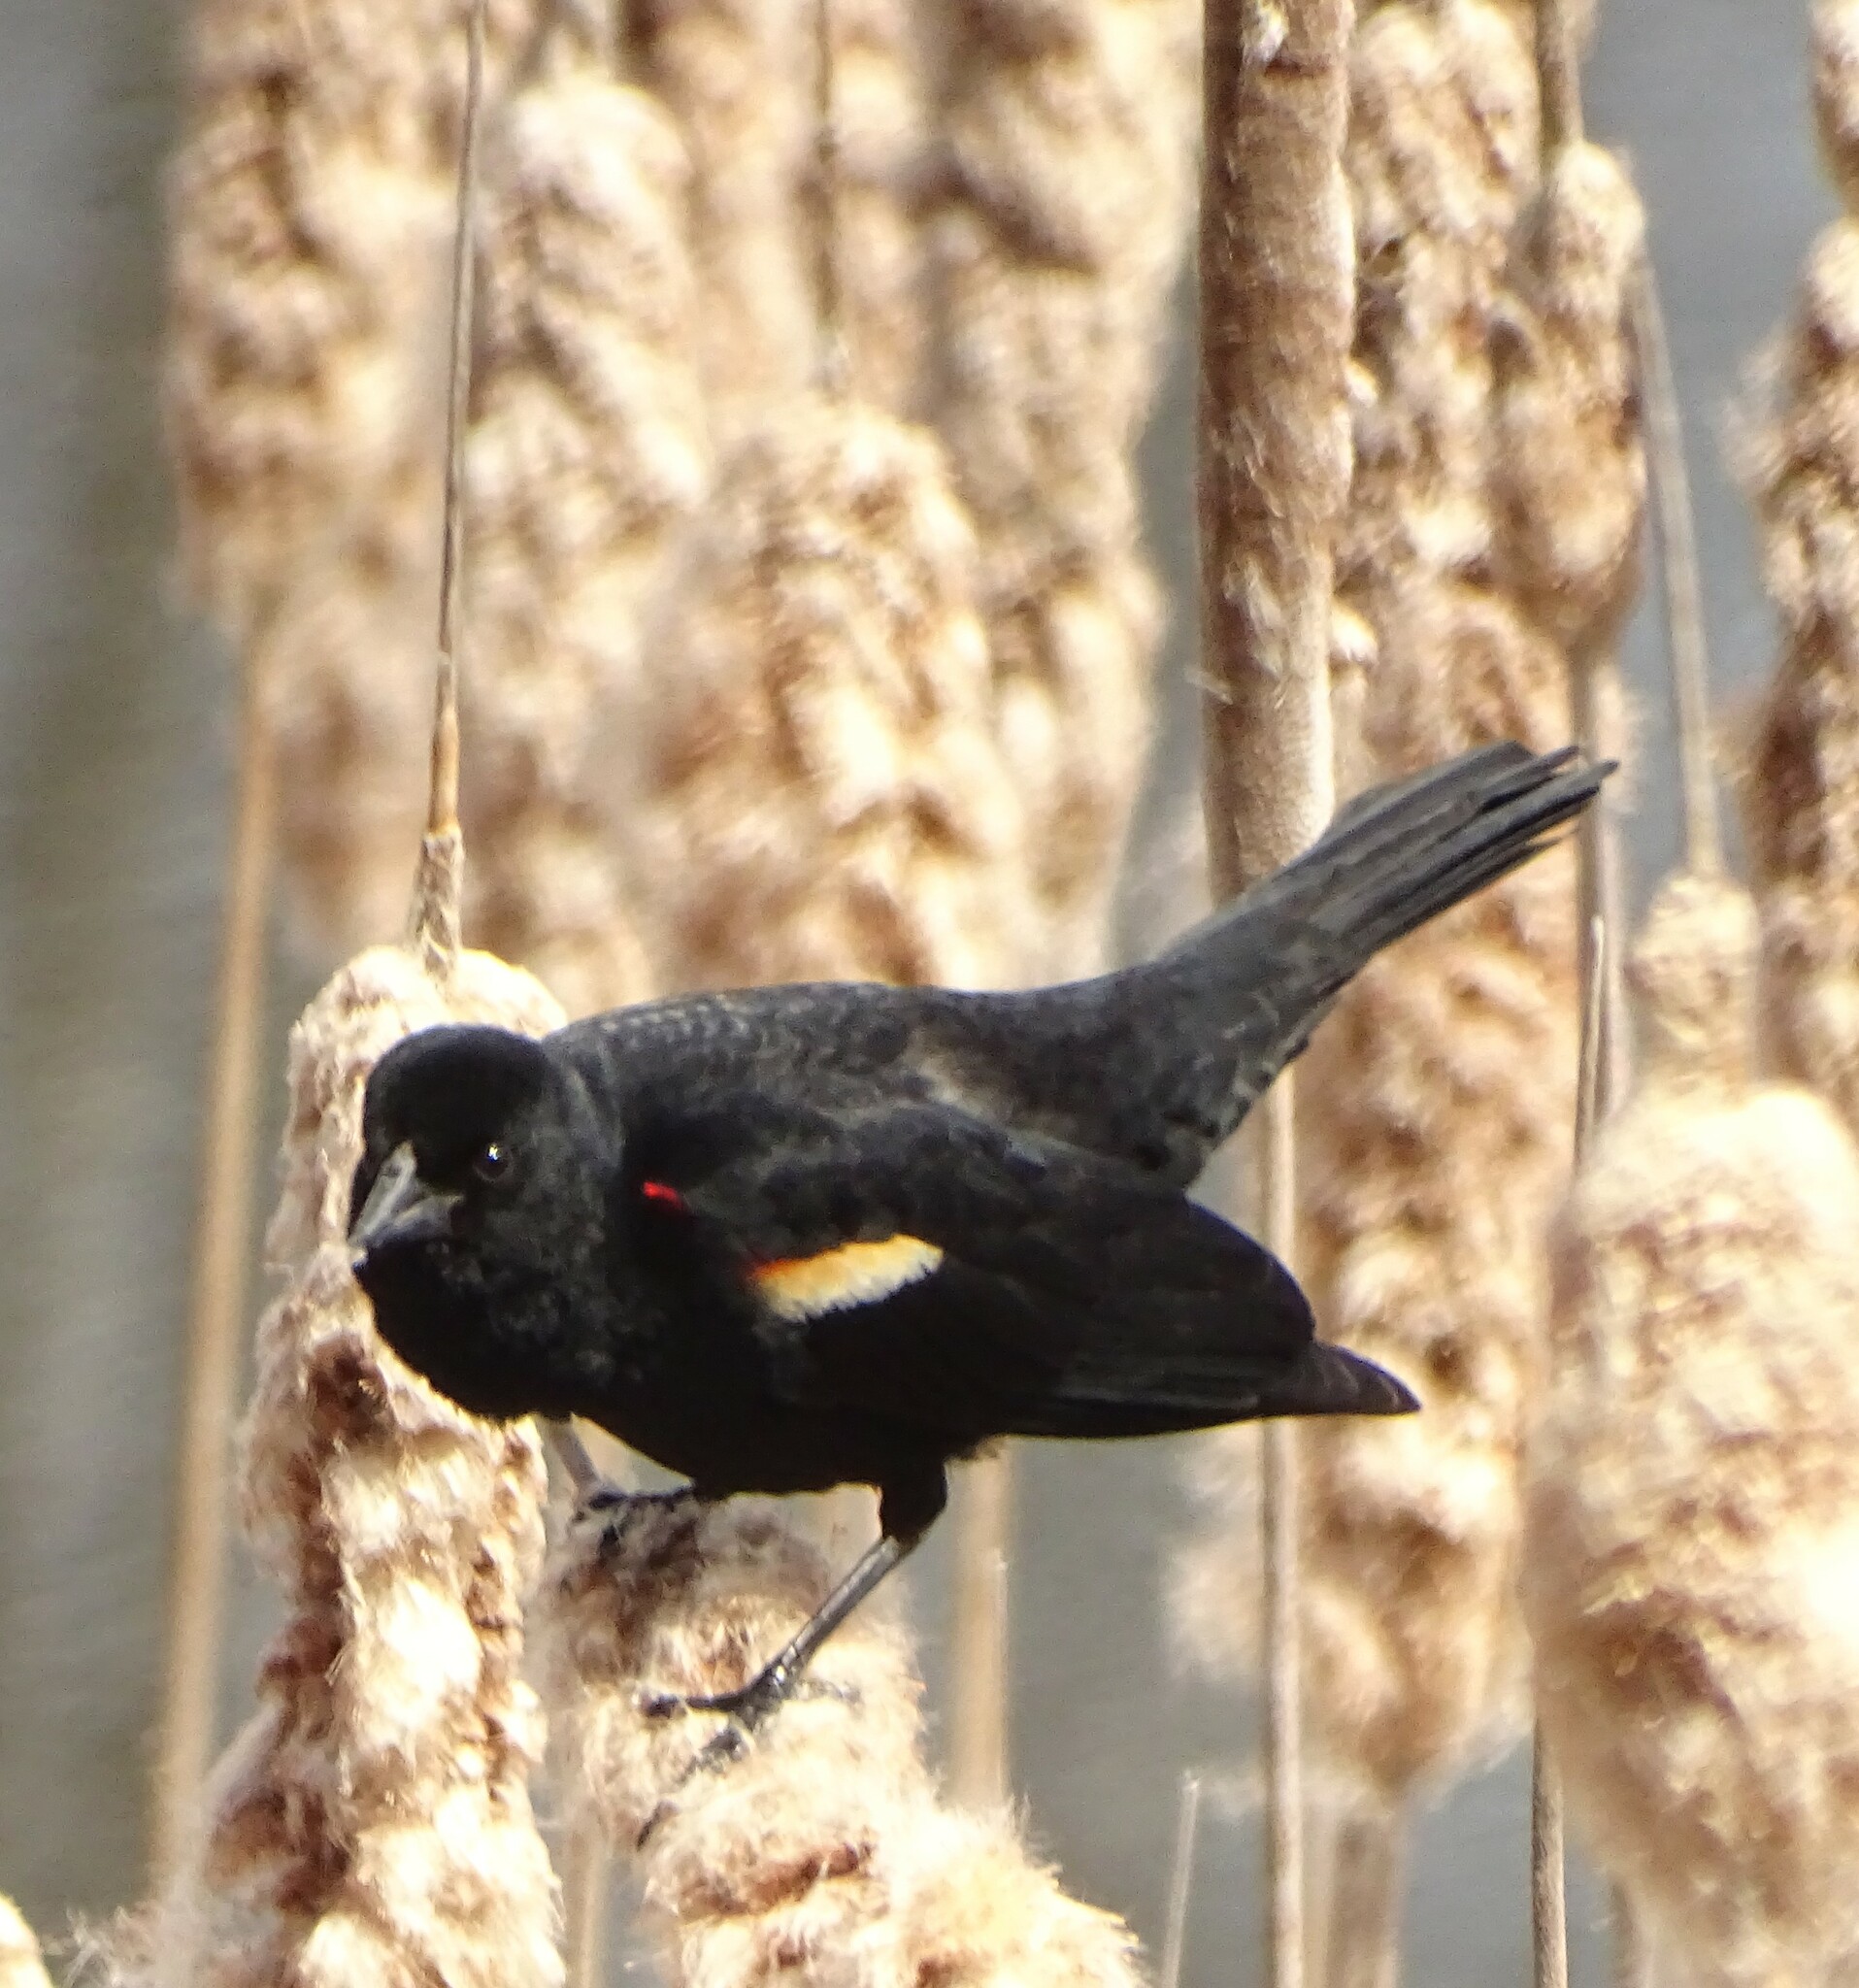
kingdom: Animalia
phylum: Chordata
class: Aves
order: Passeriformes
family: Icteridae
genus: Agelaius
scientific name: Agelaius phoeniceus
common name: Red-winged blackbird
